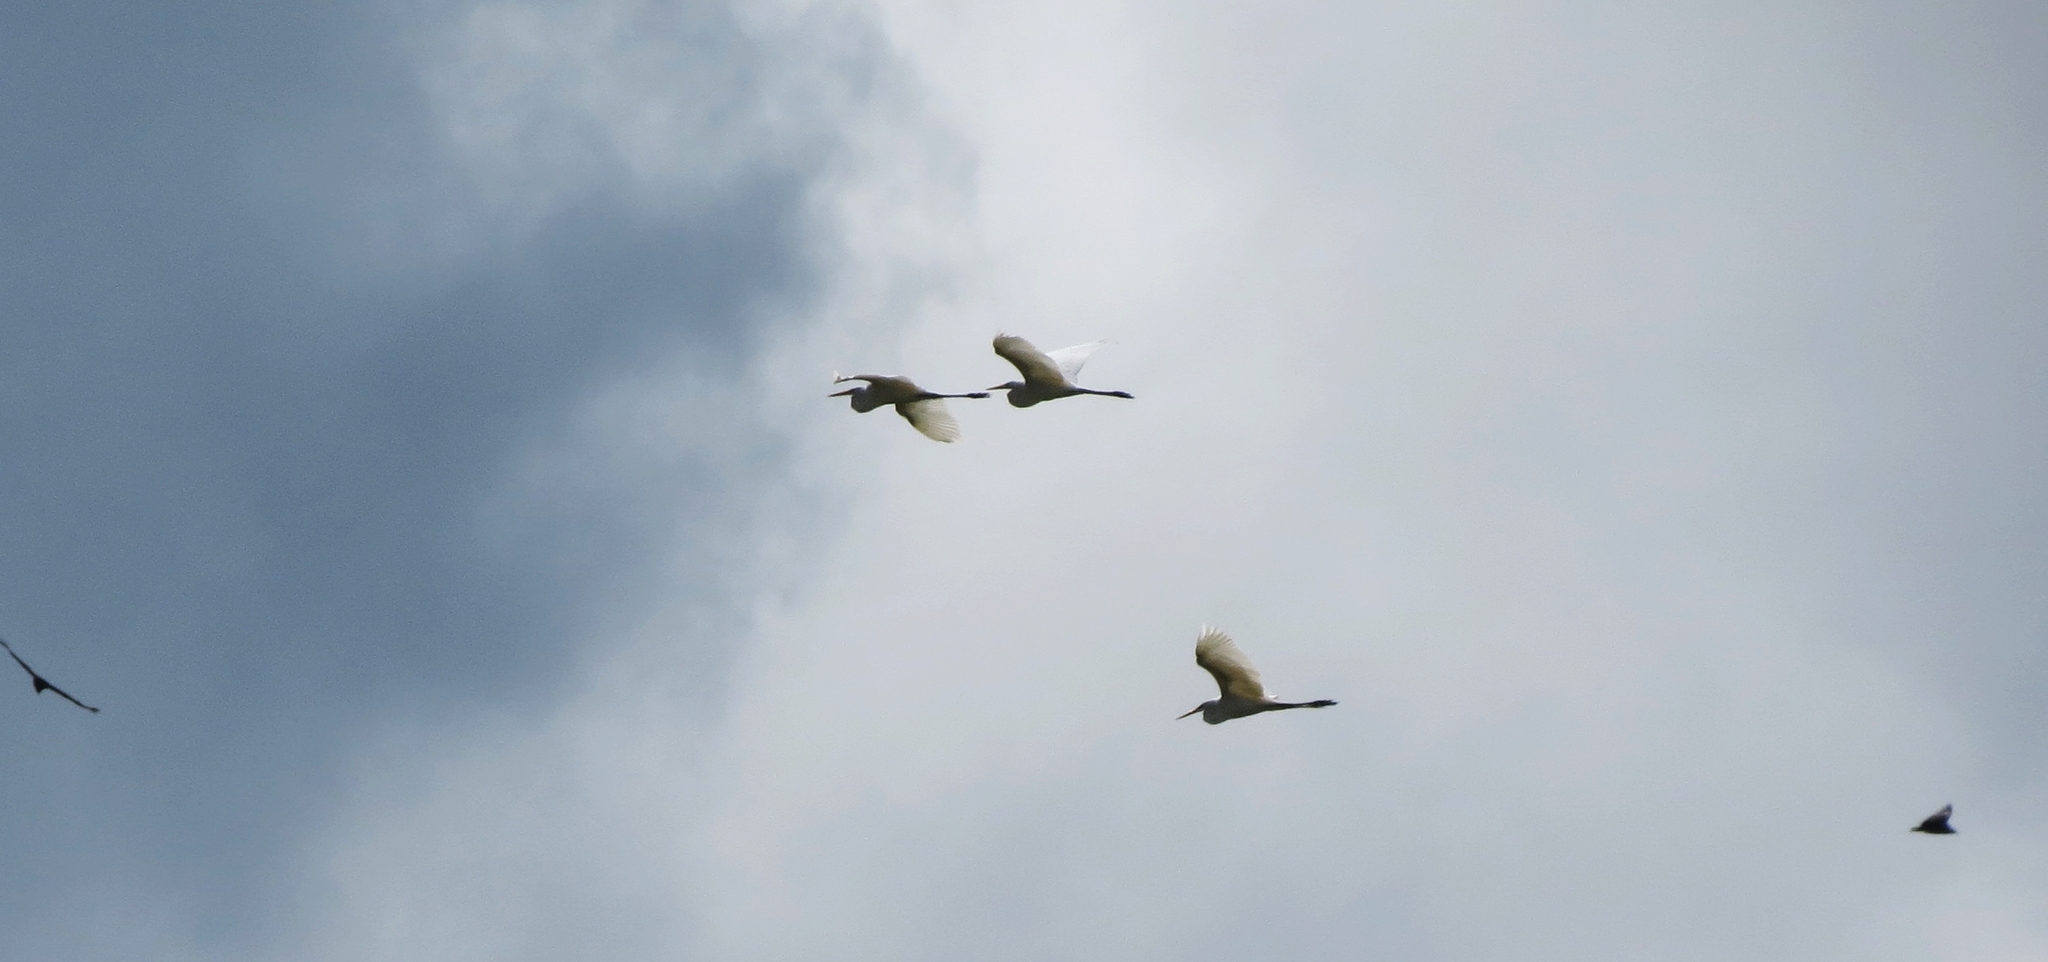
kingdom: Animalia
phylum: Chordata
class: Aves
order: Pelecaniformes
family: Ardeidae
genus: Ardea
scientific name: Ardea alba
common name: Great egret
